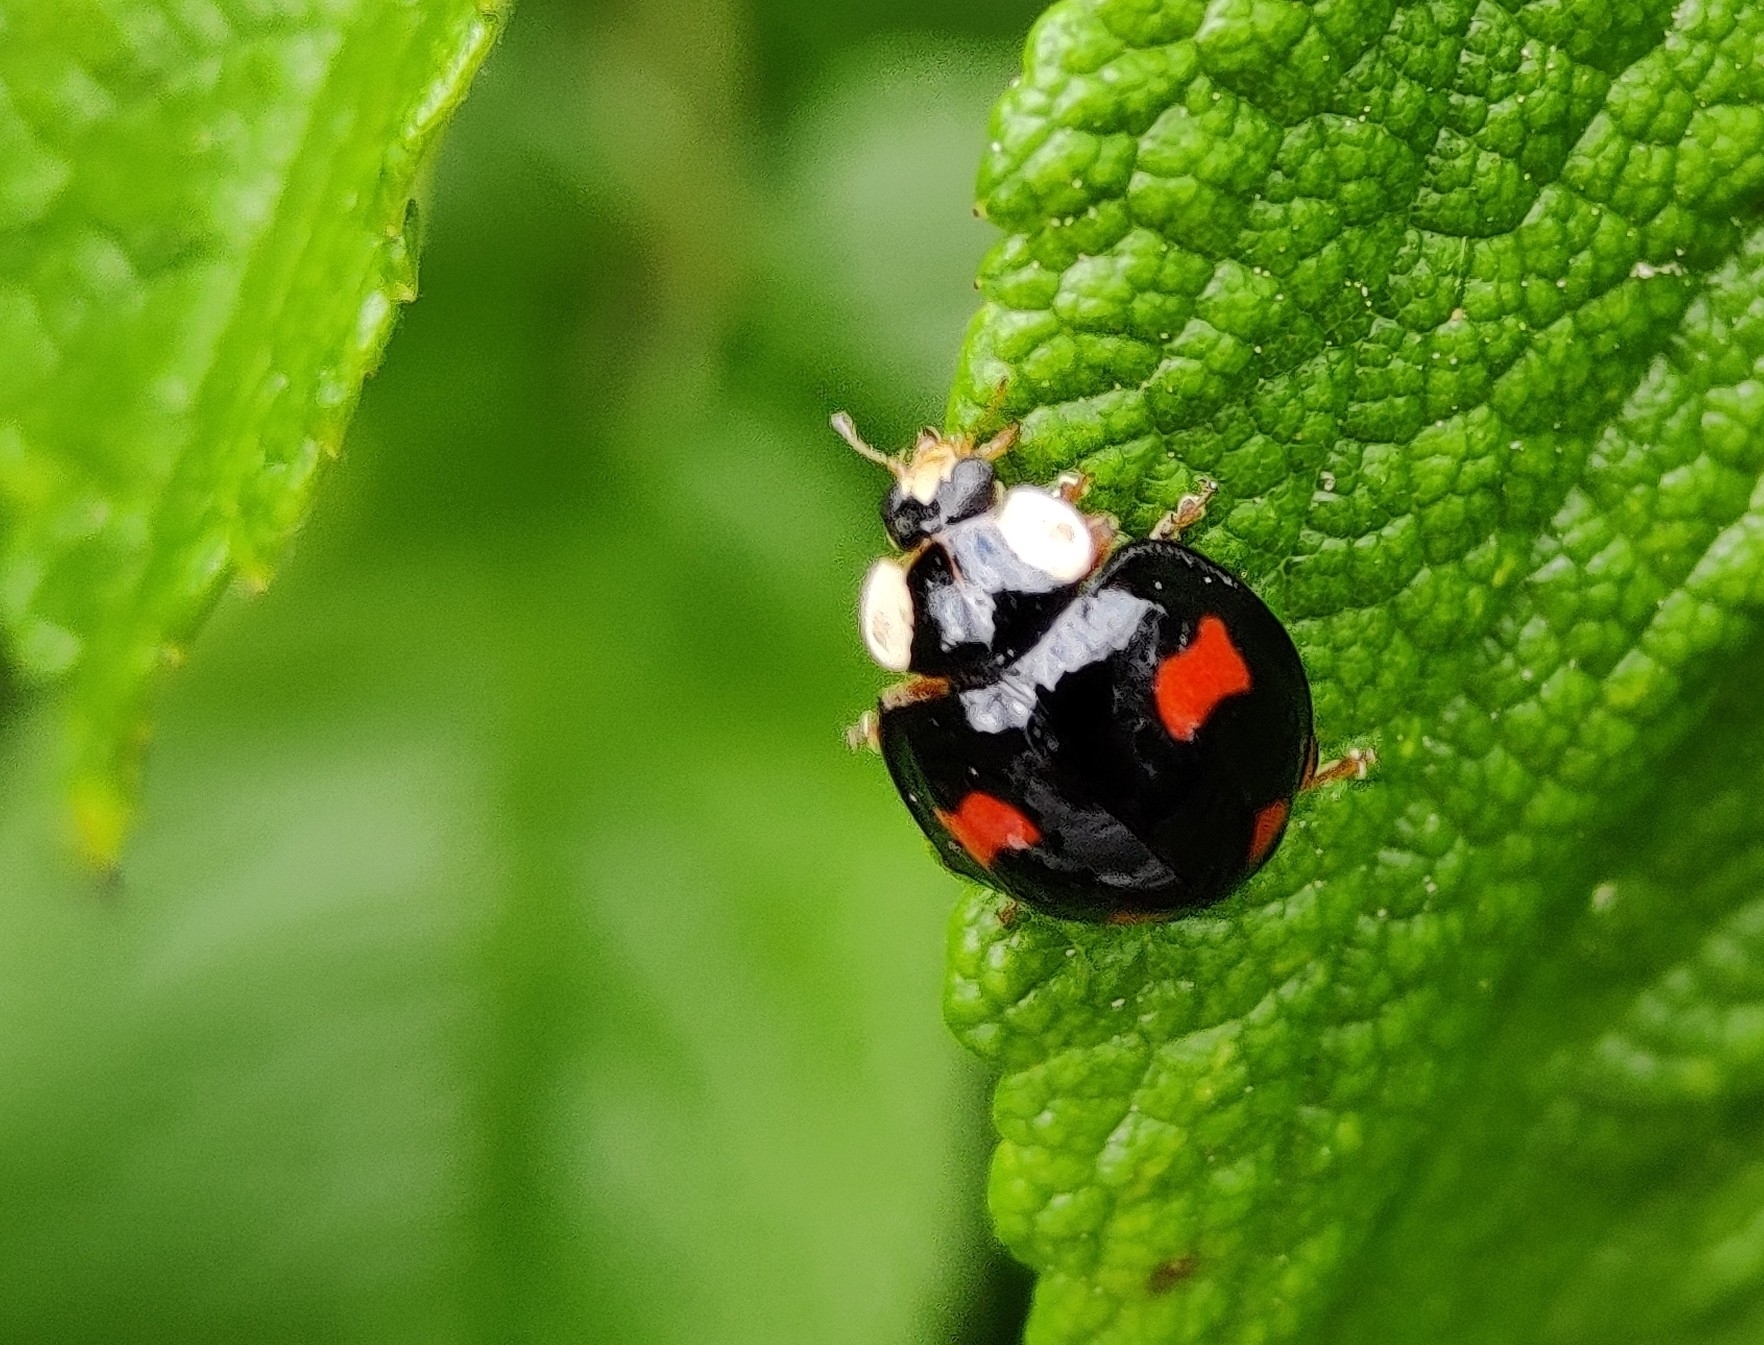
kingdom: Animalia
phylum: Arthropoda
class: Insecta
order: Coleoptera
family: Coccinellidae
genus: Harmonia
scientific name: Harmonia axyridis
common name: Harlequin ladybird
